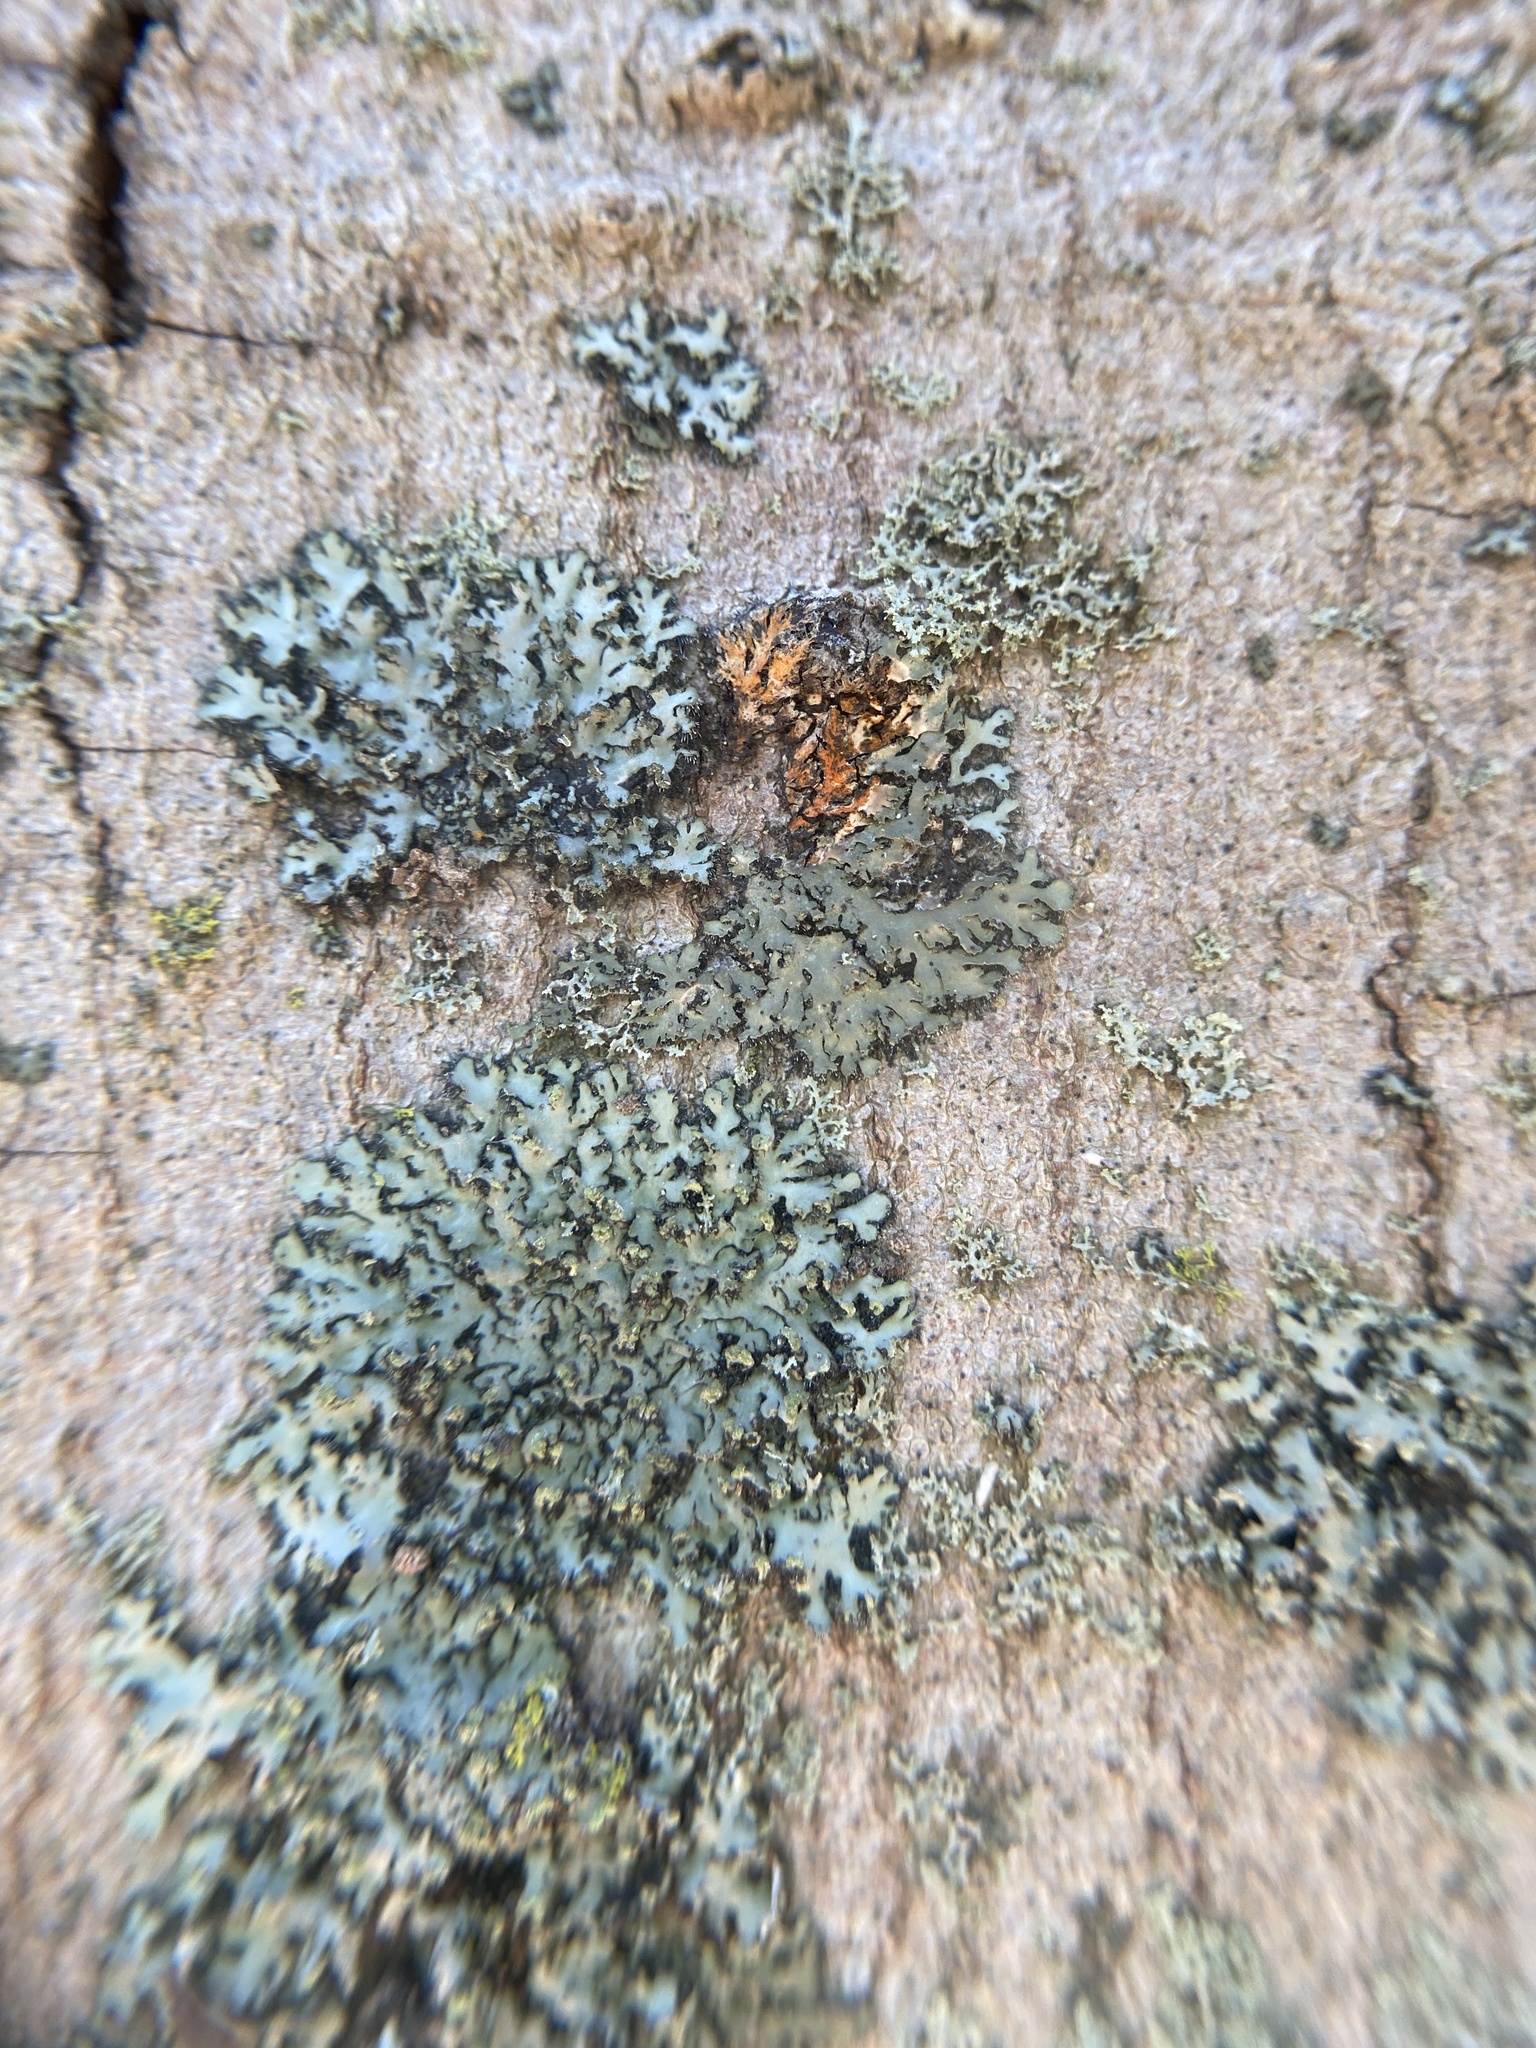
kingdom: Fungi
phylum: Ascomycota
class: Lecanoromycetes
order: Caliciales
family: Physciaceae
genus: Phaeophyscia
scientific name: Phaeophyscia rubropulchra
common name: Orange-cored shadow lichen
